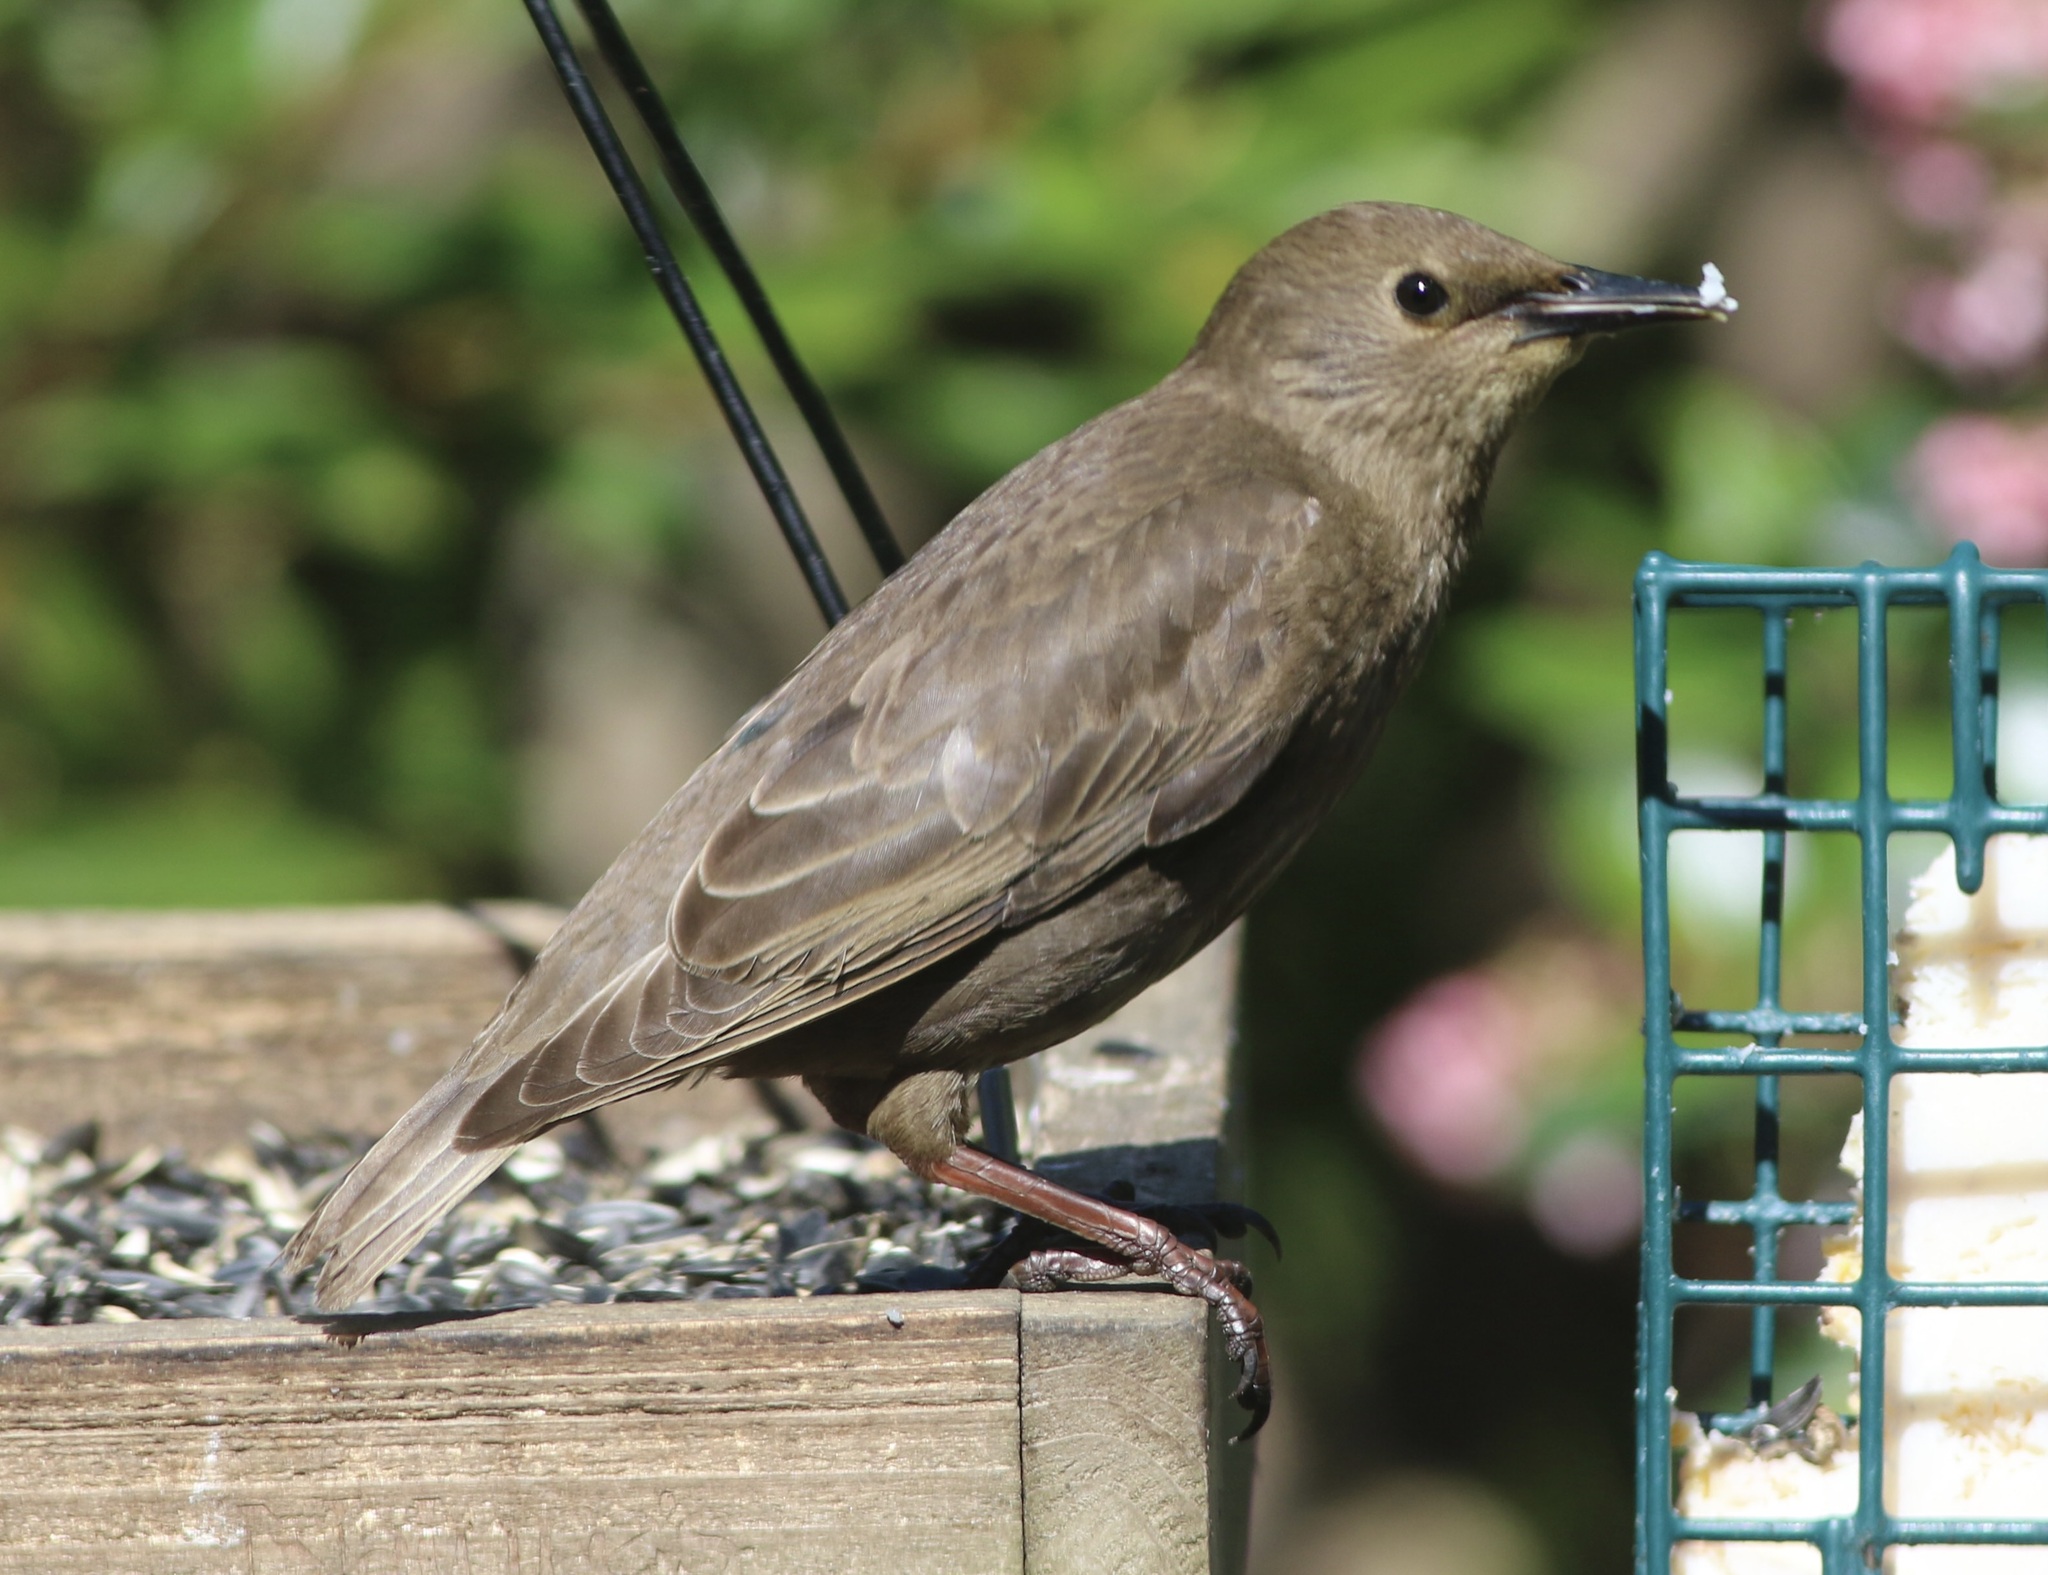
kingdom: Animalia
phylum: Chordata
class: Aves
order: Passeriformes
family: Sturnidae
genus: Sturnus
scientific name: Sturnus vulgaris
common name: Common starling
